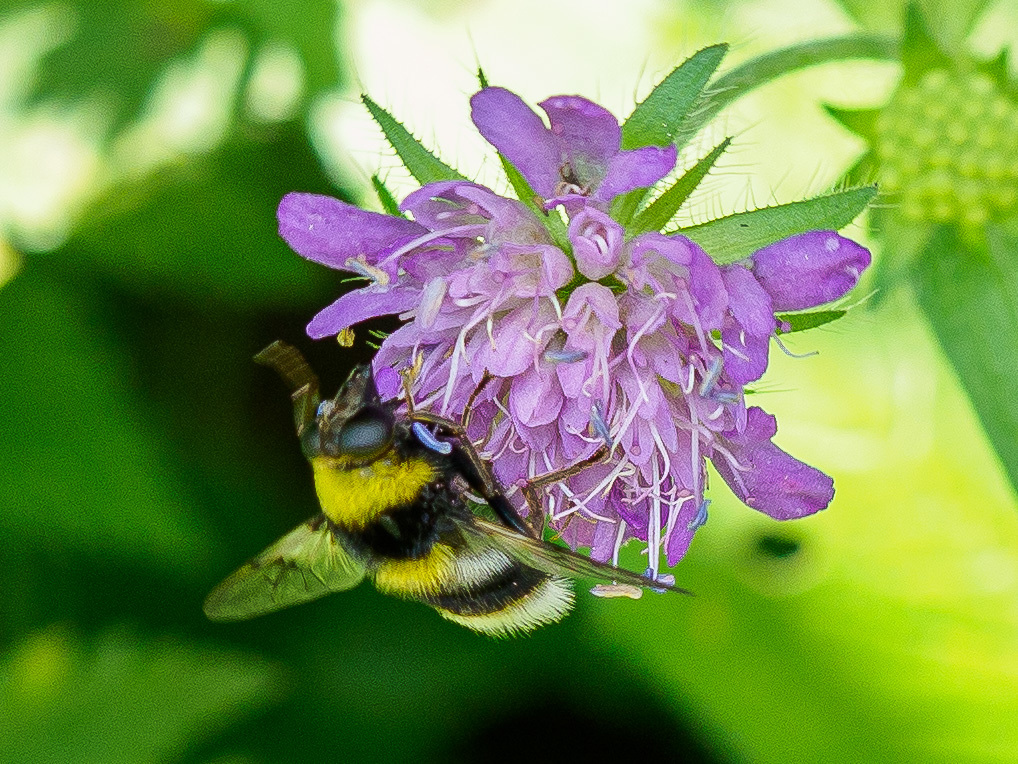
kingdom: Animalia
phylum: Arthropoda
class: Insecta
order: Diptera
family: Syrphidae
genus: Sericomyia
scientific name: Sericomyia bombiformis
